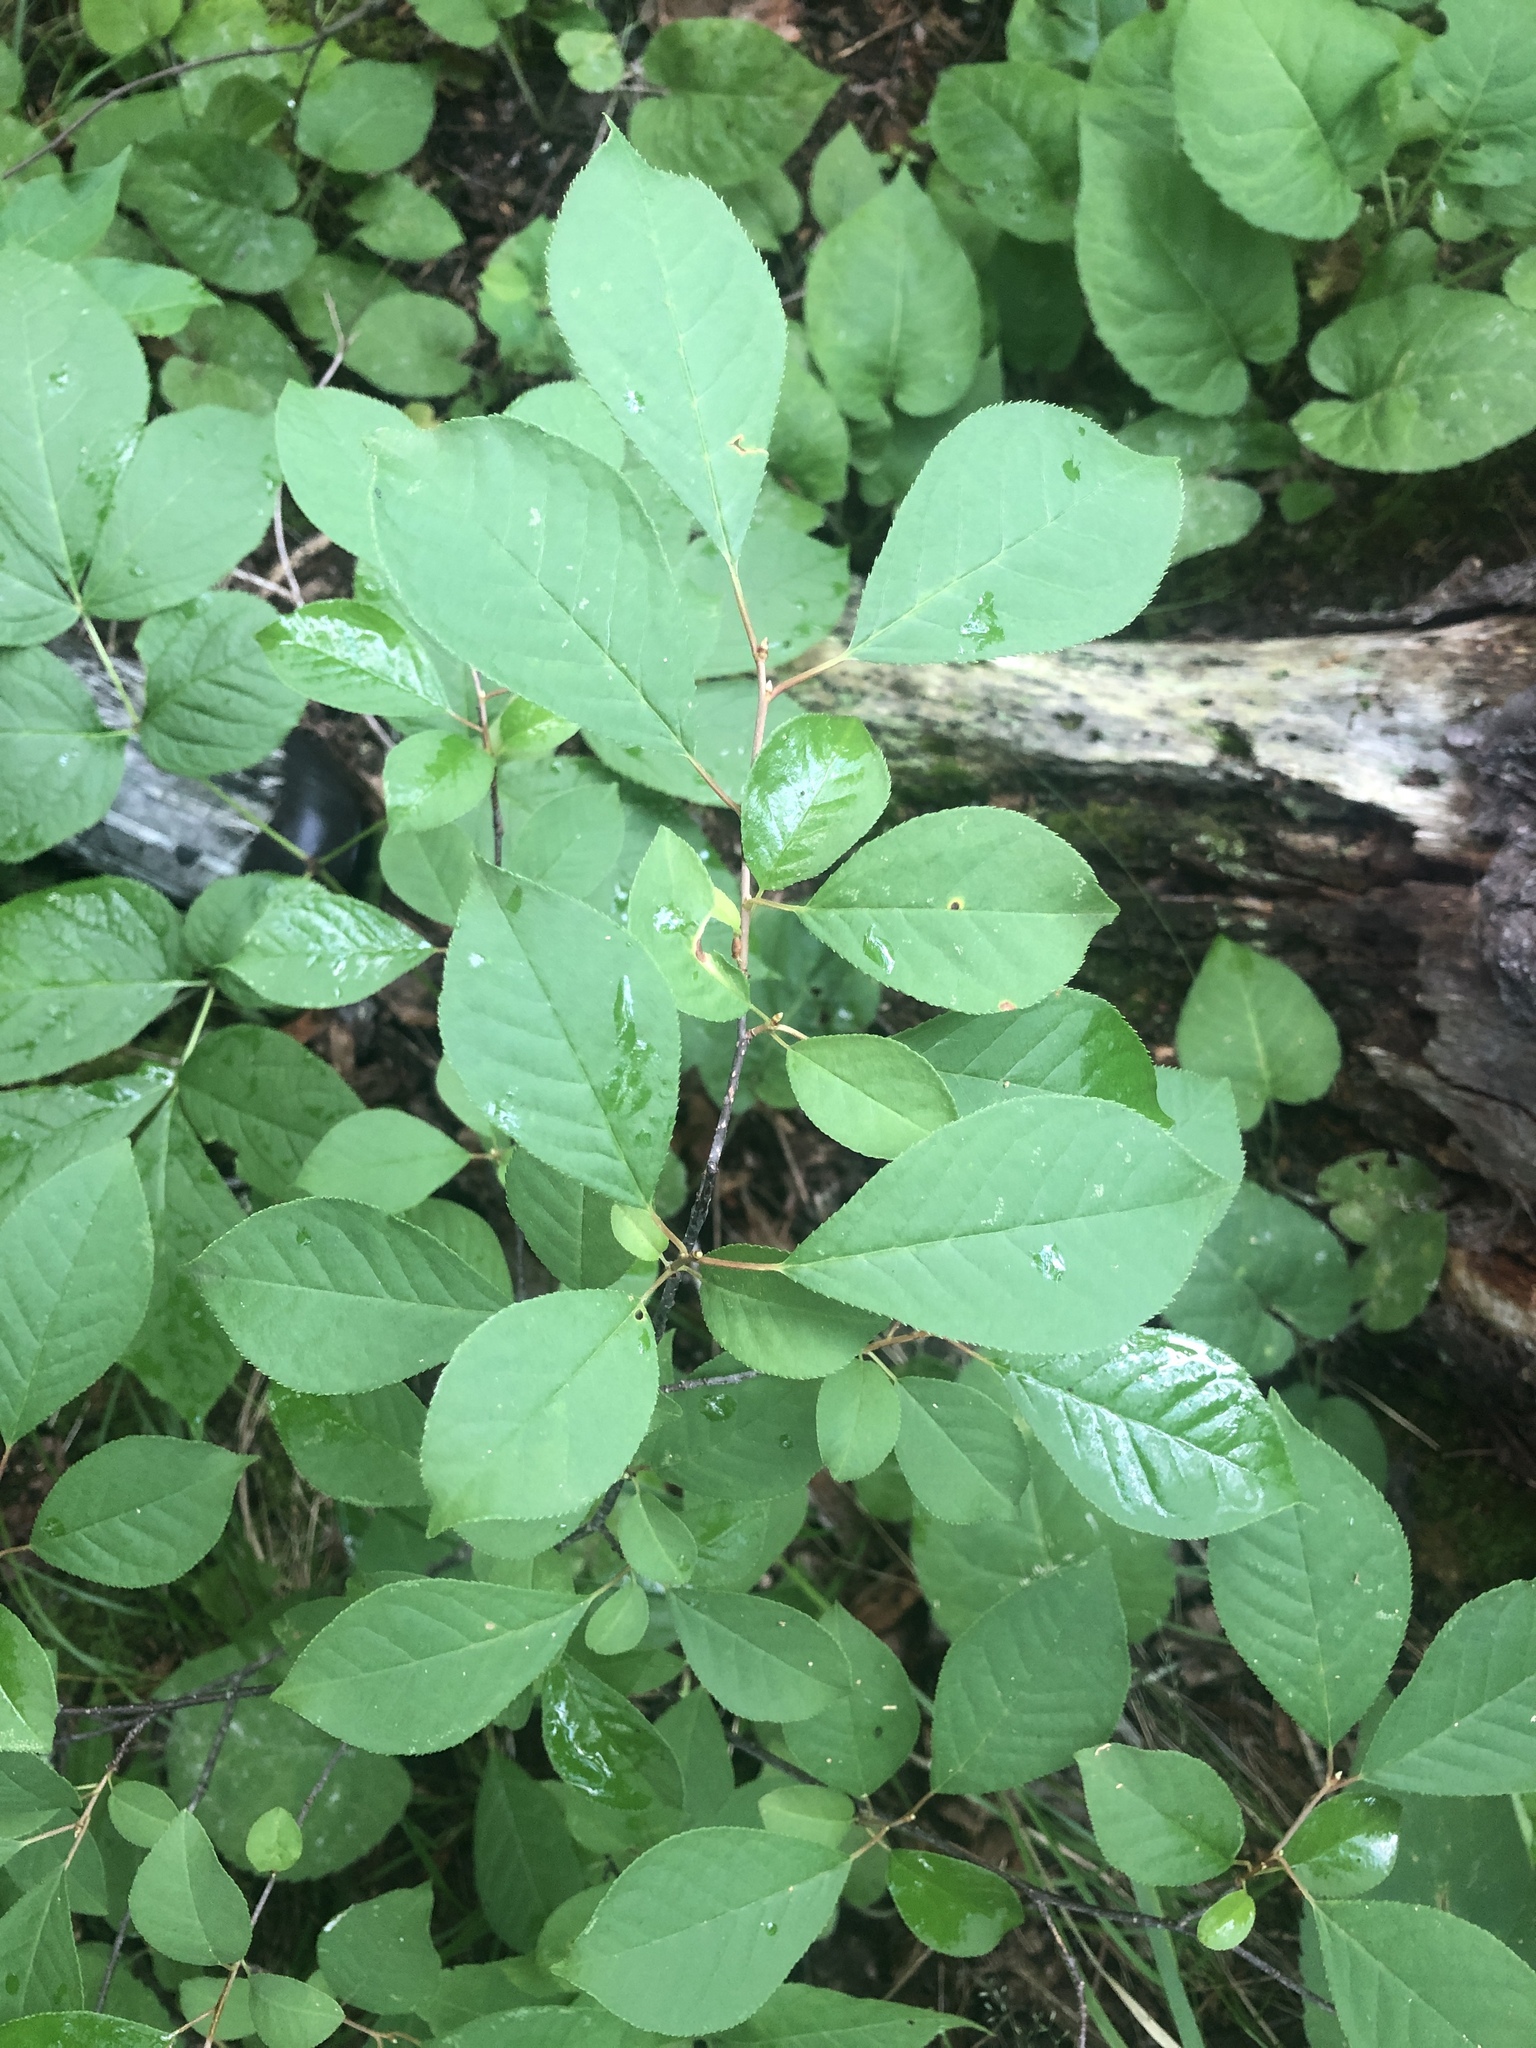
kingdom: Plantae
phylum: Tracheophyta
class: Magnoliopsida
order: Rosales
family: Rosaceae
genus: Prunus
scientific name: Prunus virginiana
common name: Chokecherry
